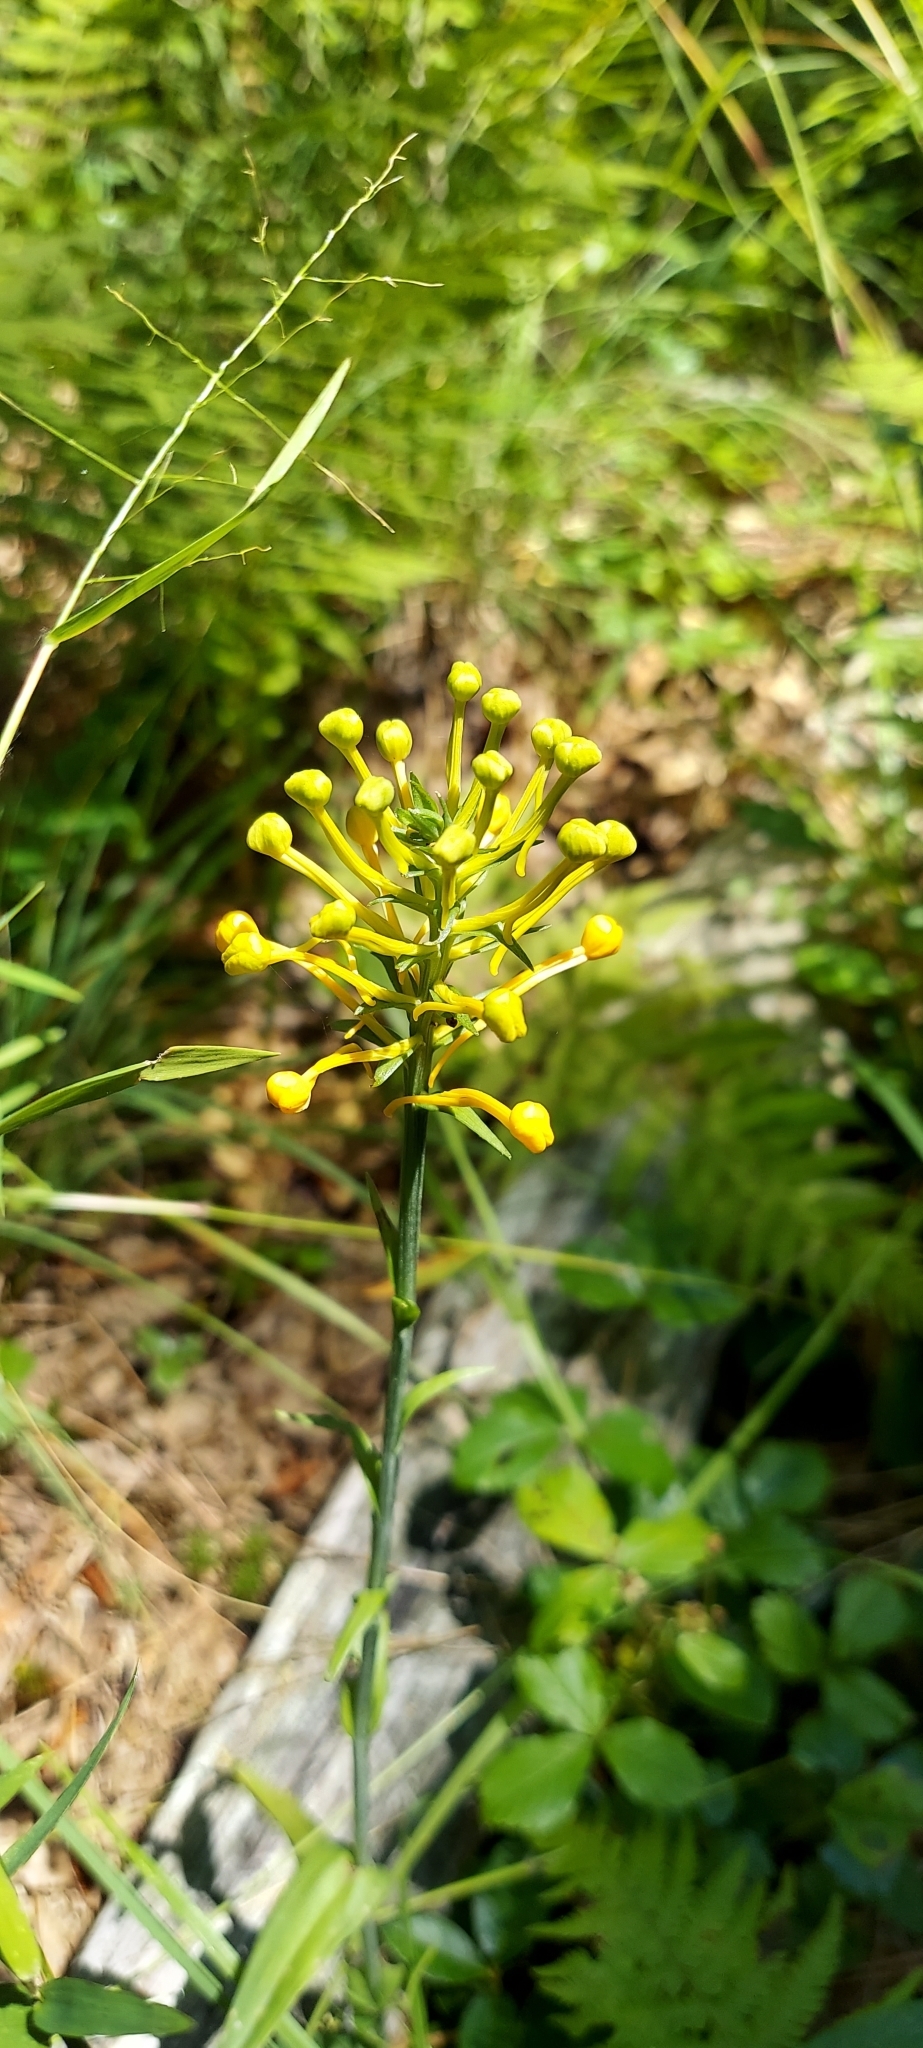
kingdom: Plantae
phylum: Tracheophyta
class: Liliopsida
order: Asparagales
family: Orchidaceae
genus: Platanthera
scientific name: Platanthera ciliaris
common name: Yellow fringed orchid
